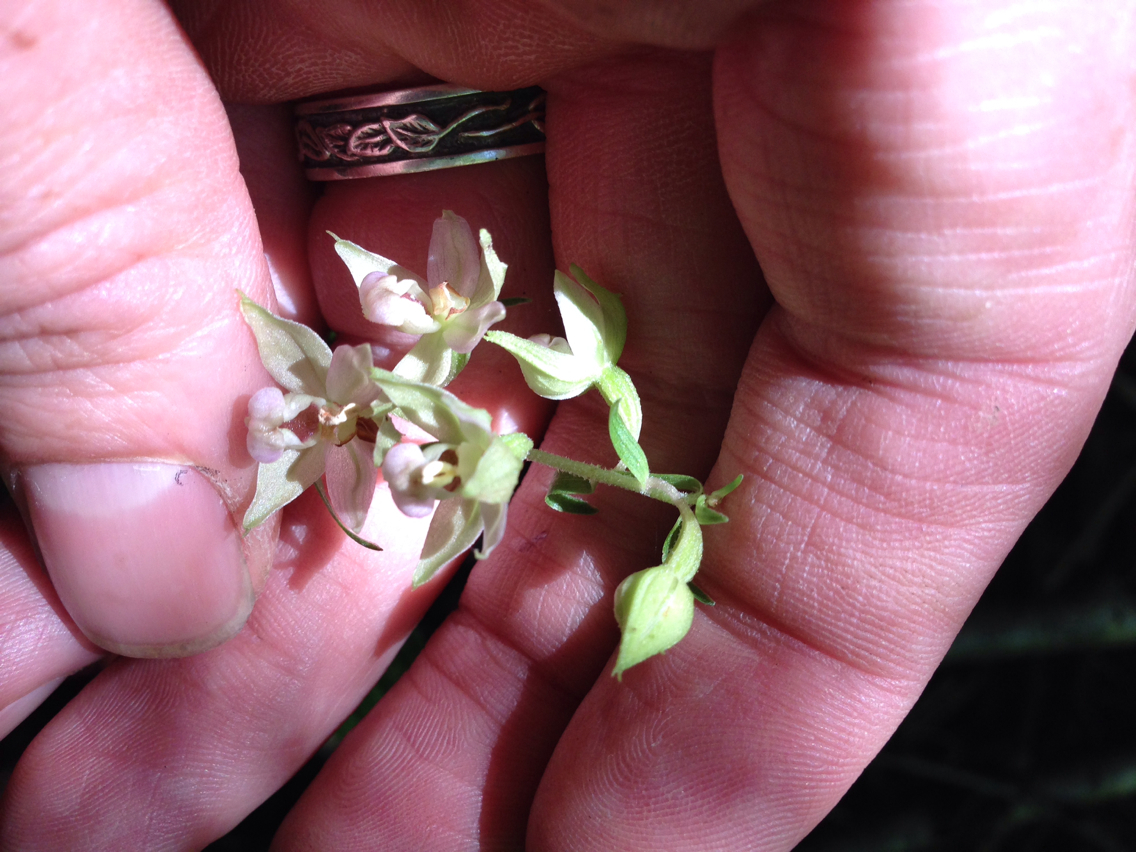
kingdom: Plantae
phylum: Tracheophyta
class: Liliopsida
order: Asparagales
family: Orchidaceae
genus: Epipactis
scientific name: Epipactis helleborine
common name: Broad-leaved helleborine
